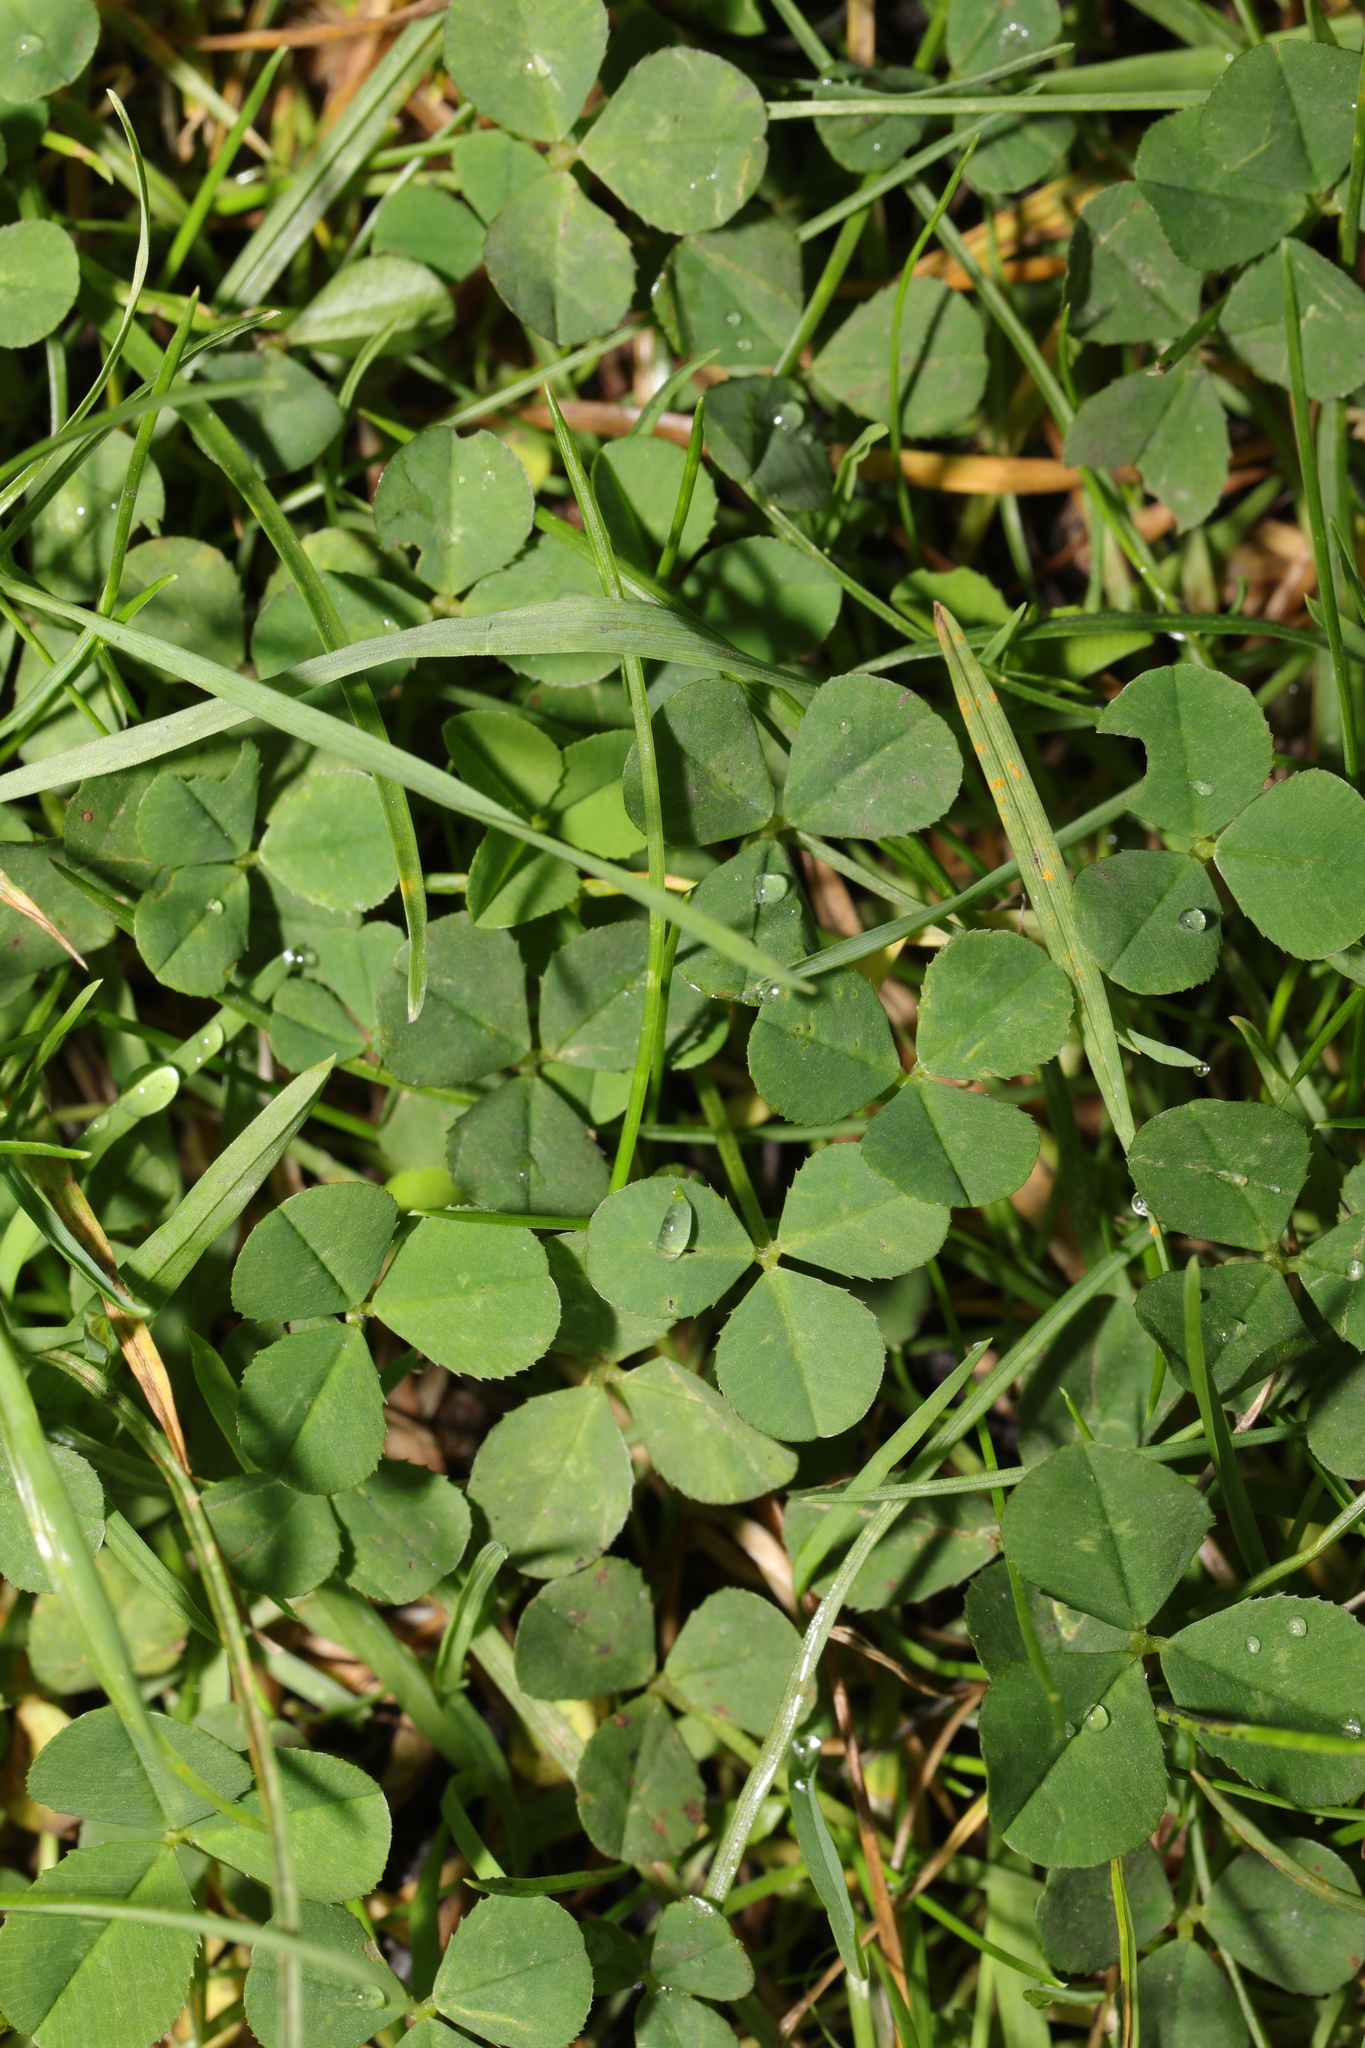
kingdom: Plantae
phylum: Tracheophyta
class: Magnoliopsida
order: Fabales
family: Fabaceae
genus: Trifolium
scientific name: Trifolium repens
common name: White clover
